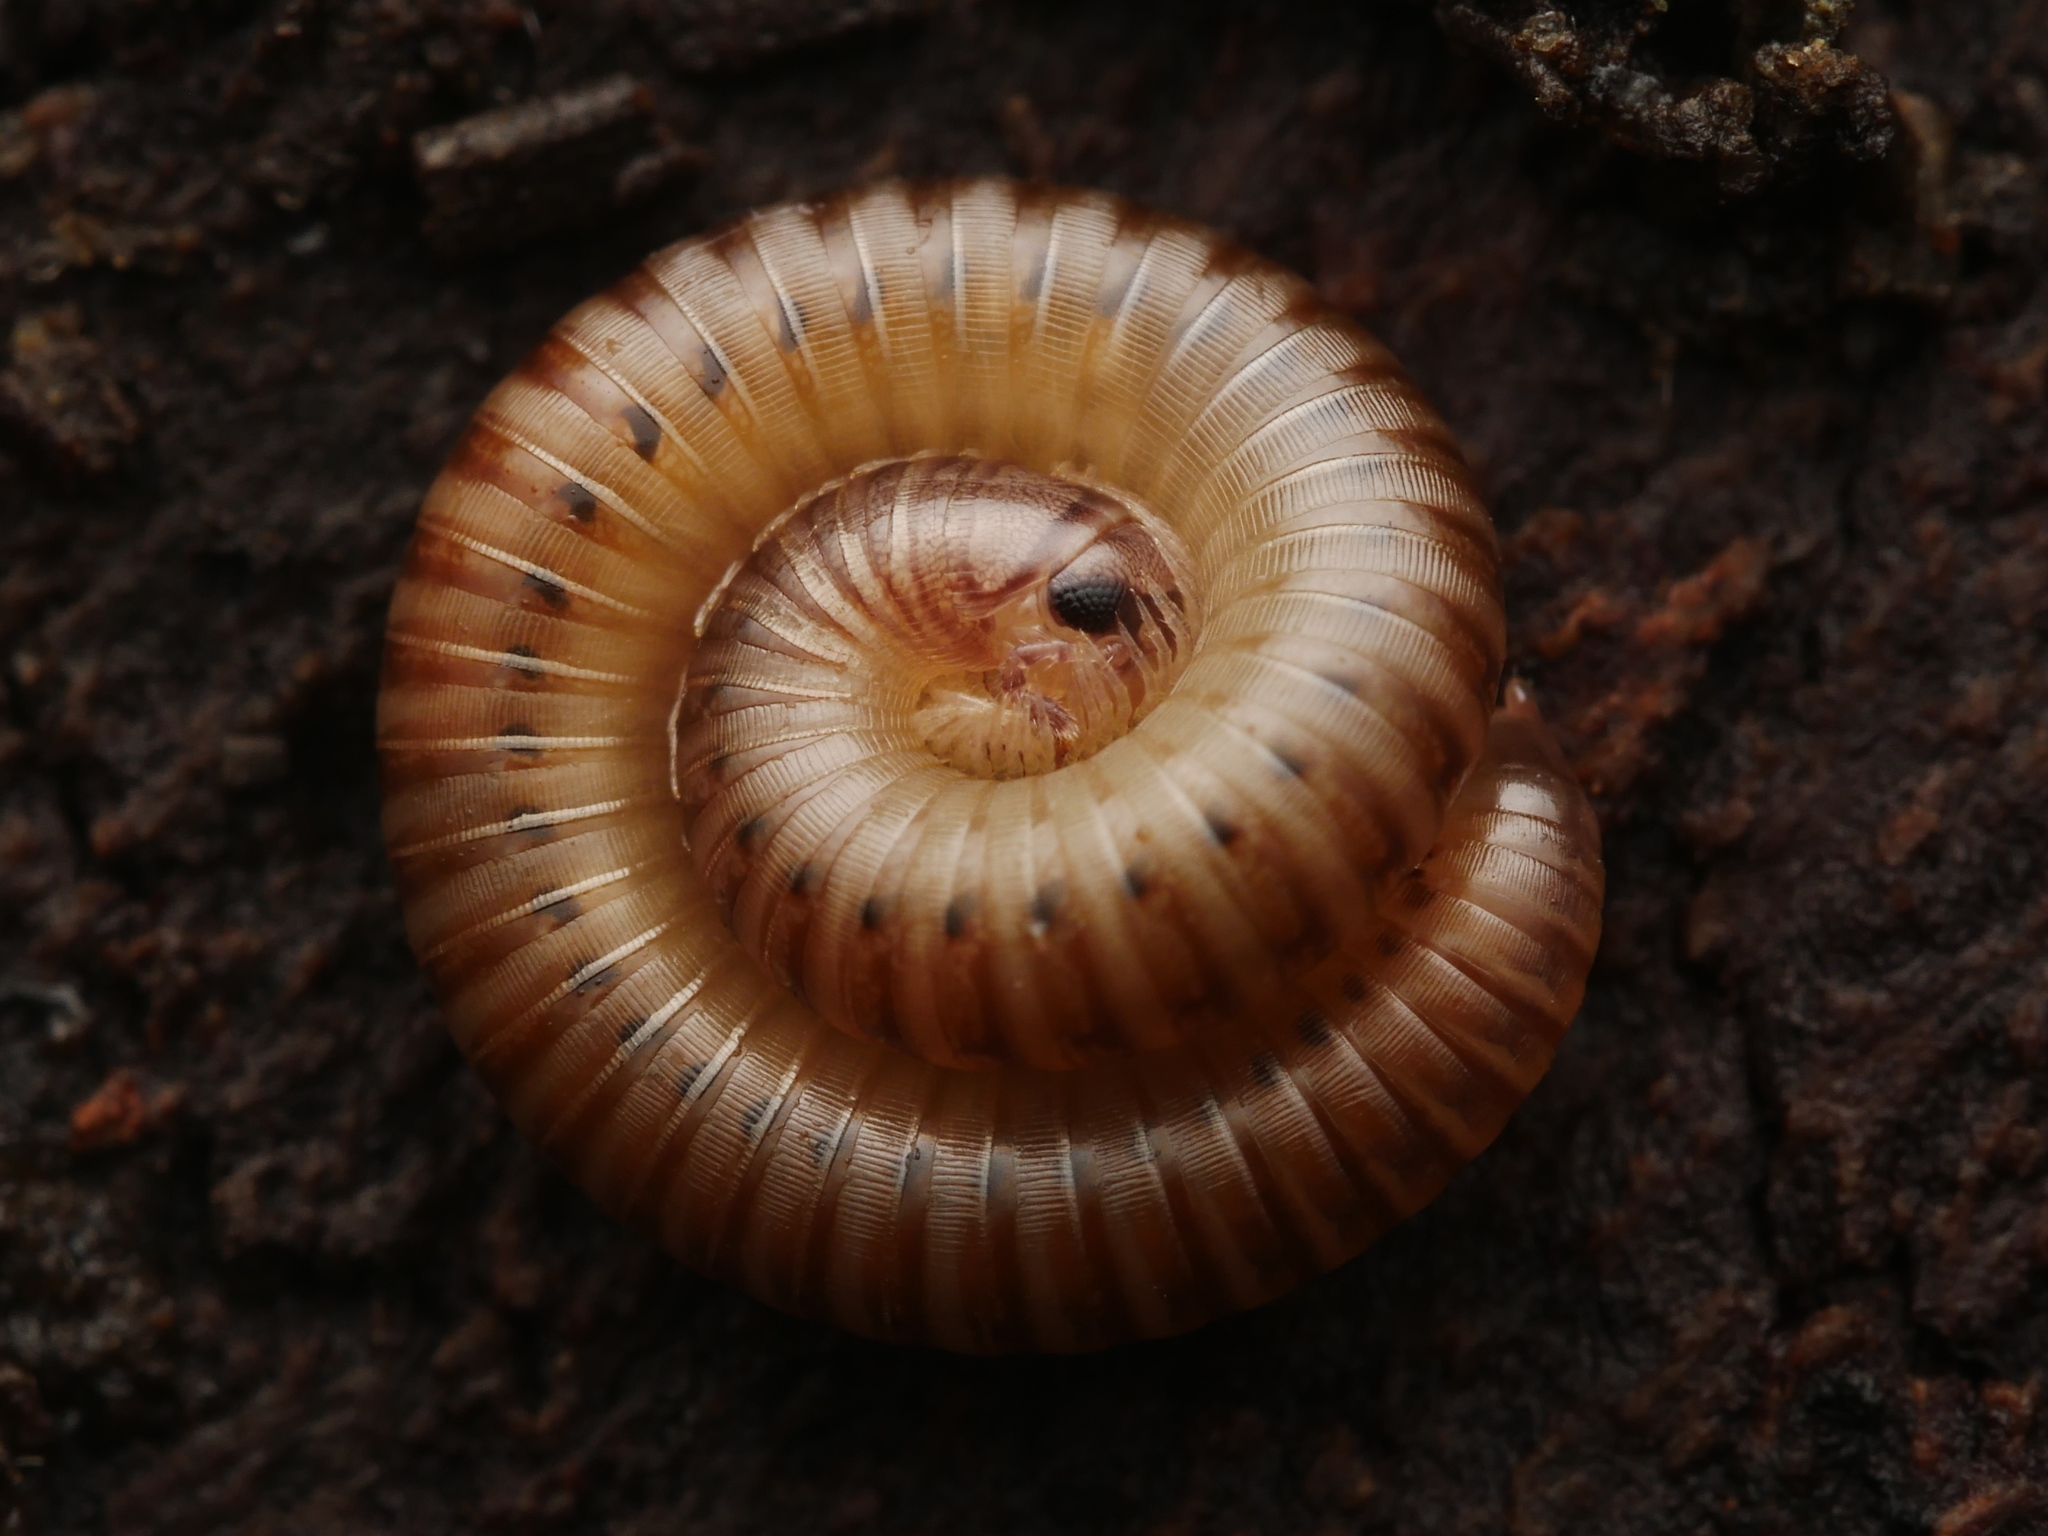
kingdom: Animalia
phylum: Arthropoda
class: Diplopoda
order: Julida
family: Julidae
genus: Cylindroiulus
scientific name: Cylindroiulus punctatus
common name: Blunt-tailed millipede
